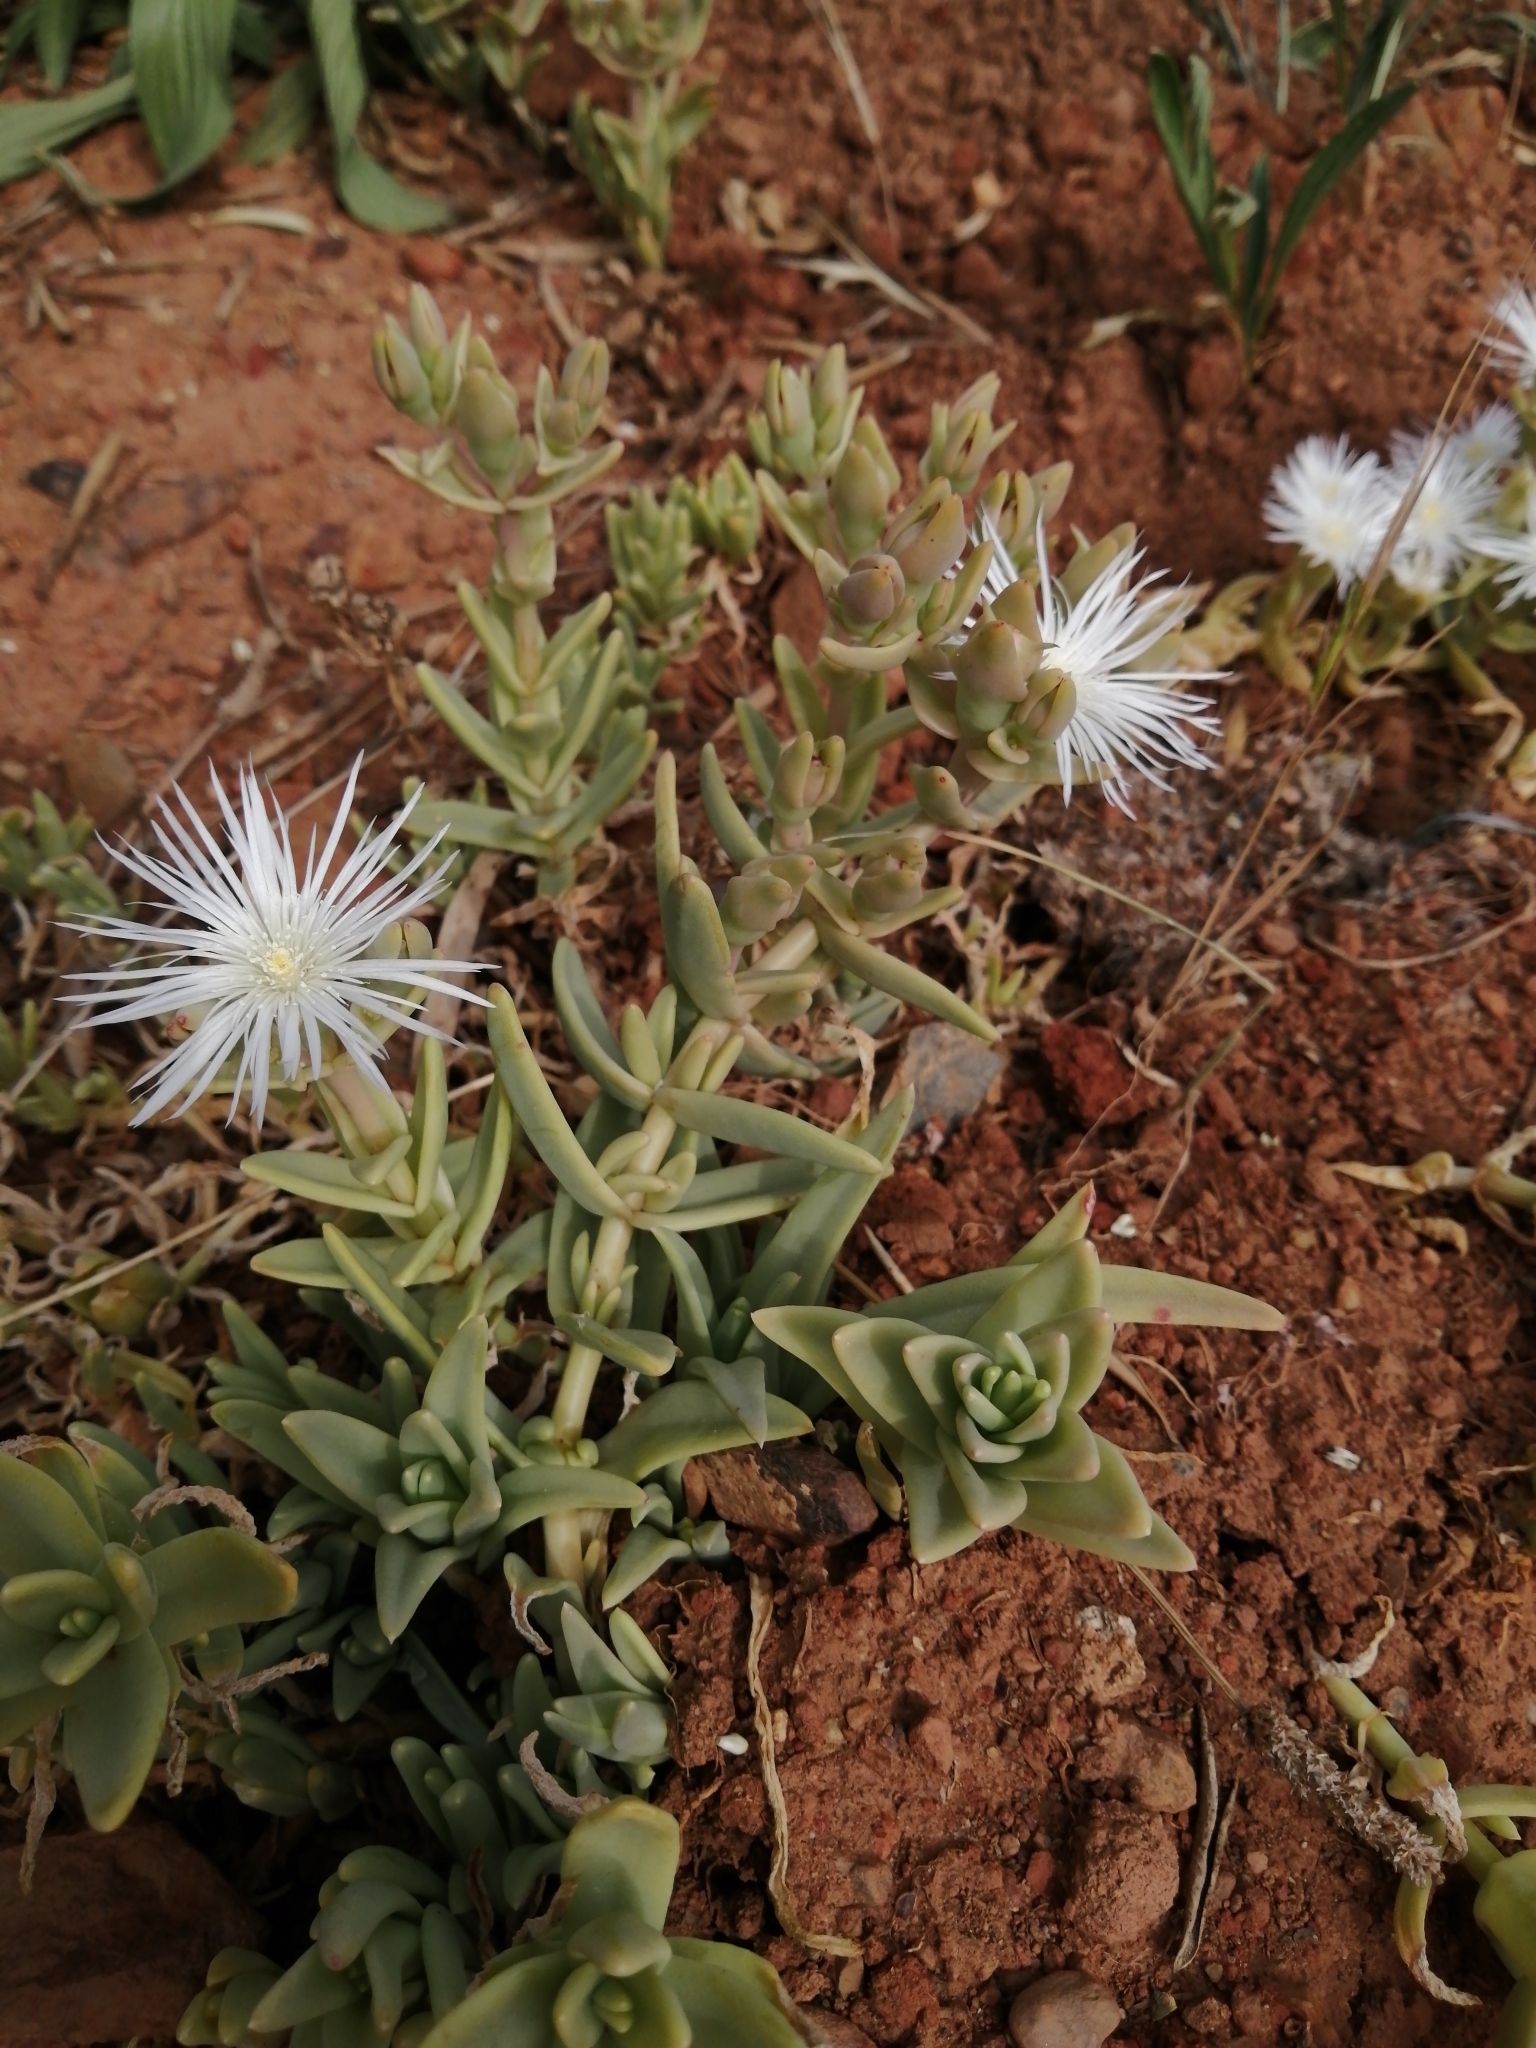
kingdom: Plantae
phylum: Tracheophyta
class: Magnoliopsida
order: Caryophyllales
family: Aizoaceae
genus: Mesembryanthemum
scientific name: Mesembryanthemum pallens
